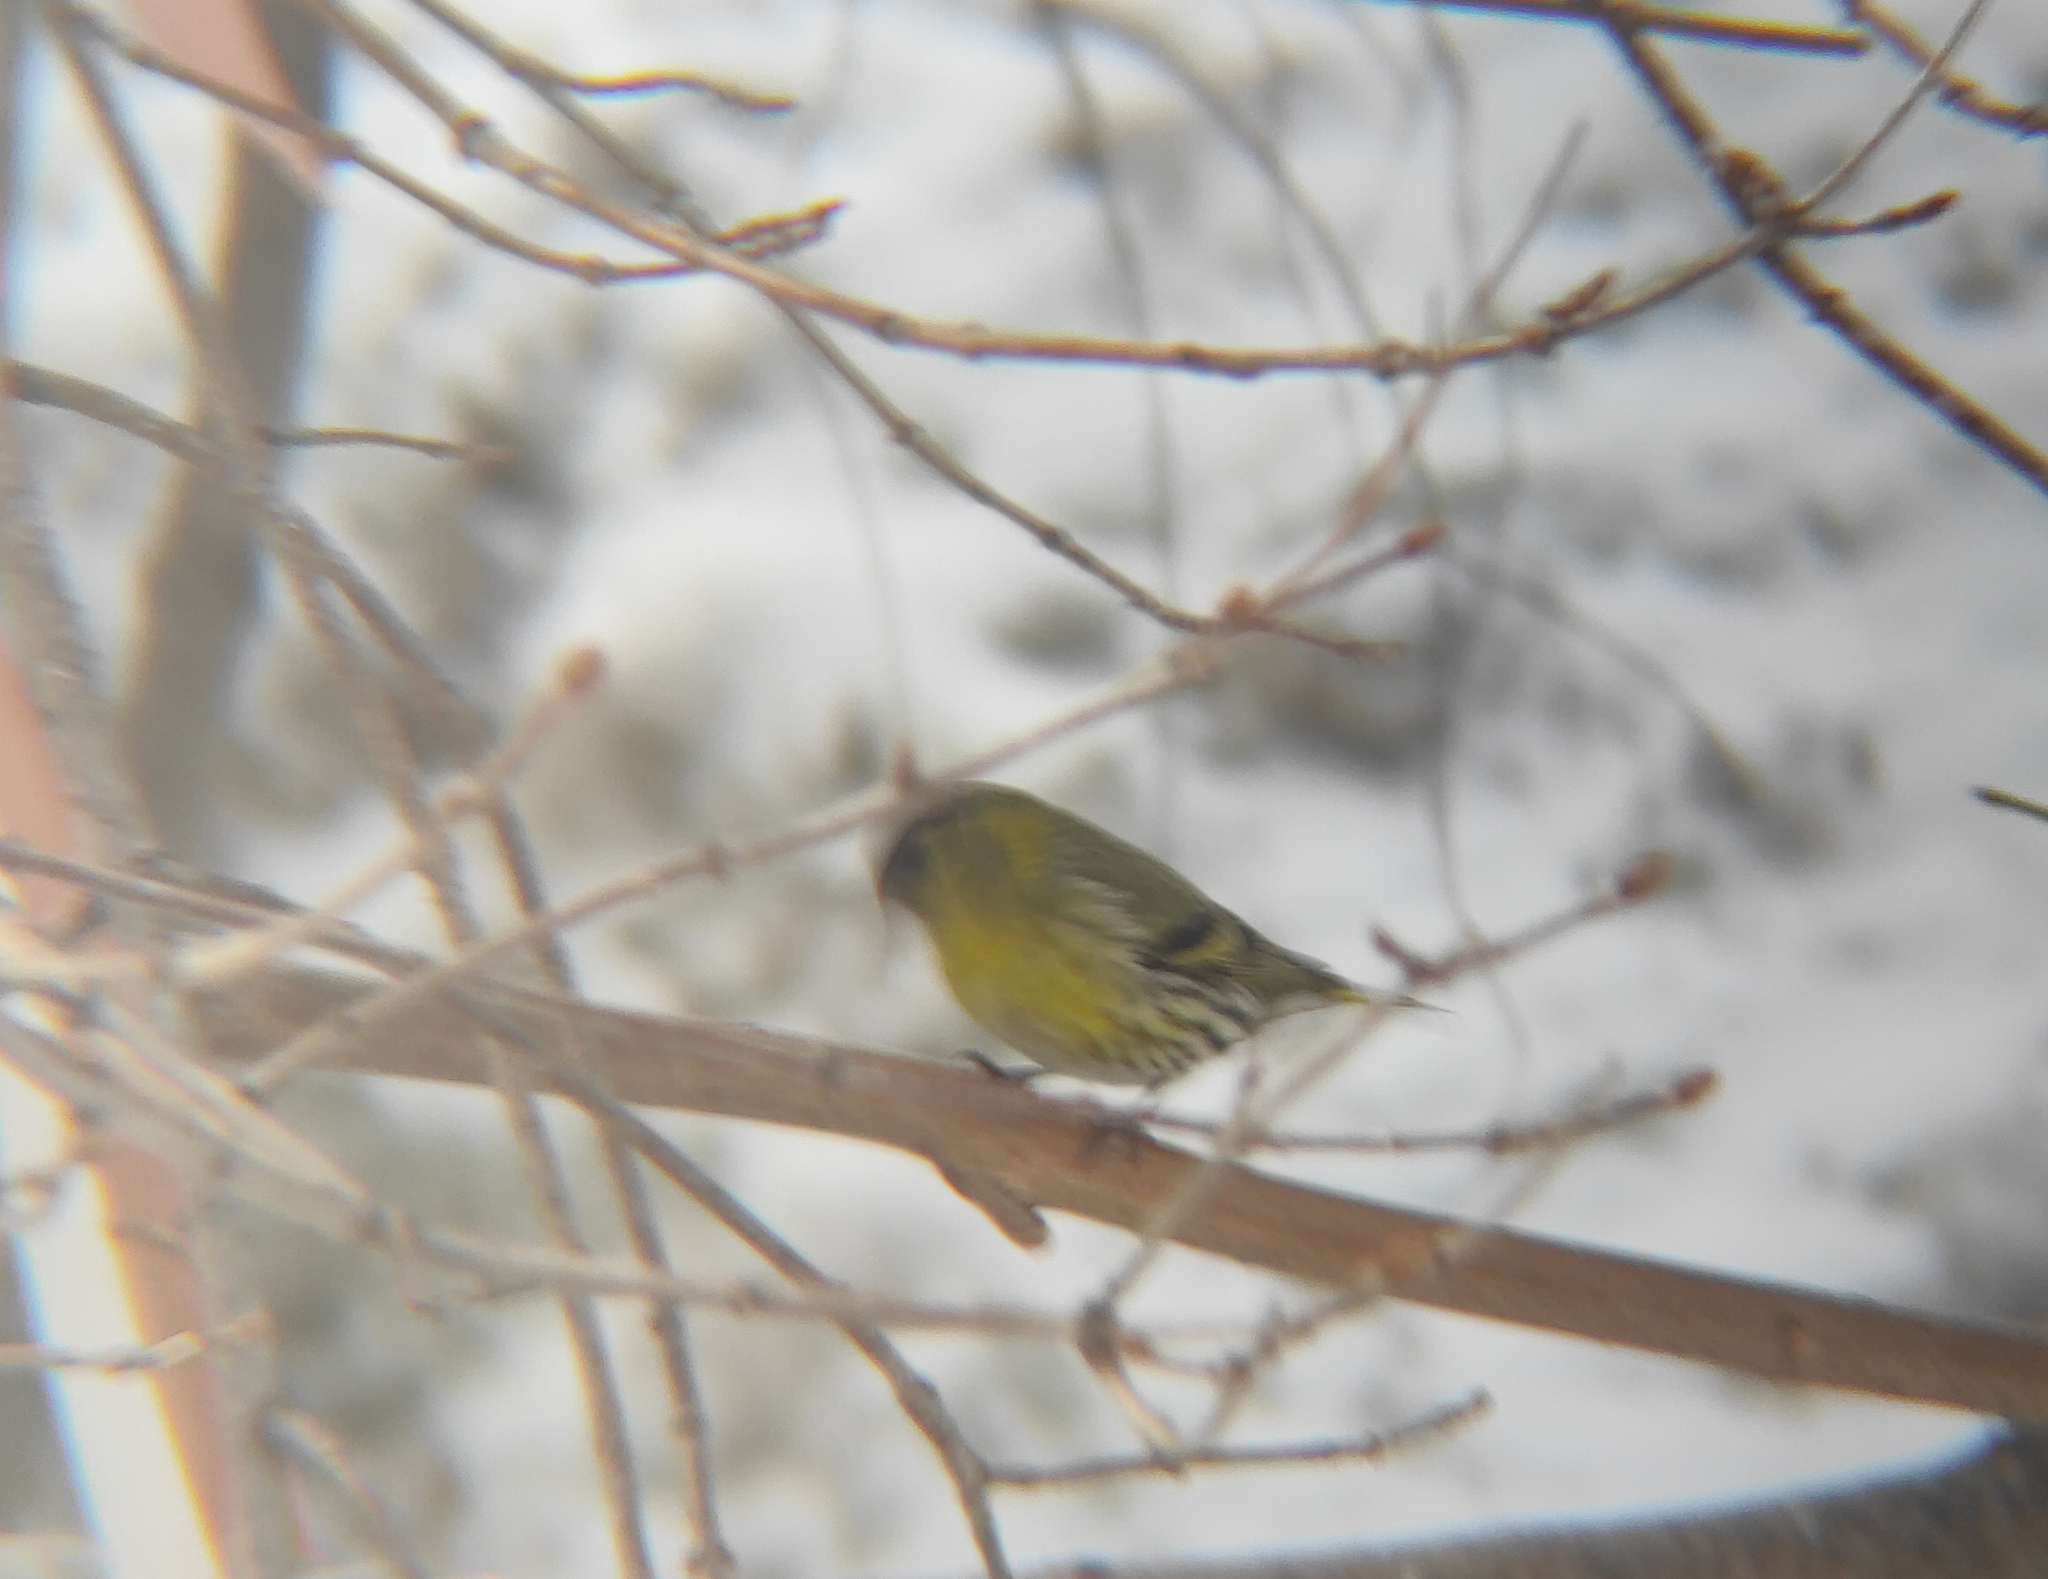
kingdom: Animalia
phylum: Chordata
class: Aves
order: Passeriformes
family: Fringillidae
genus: Spinus
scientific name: Spinus spinus
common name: Eurasian siskin
